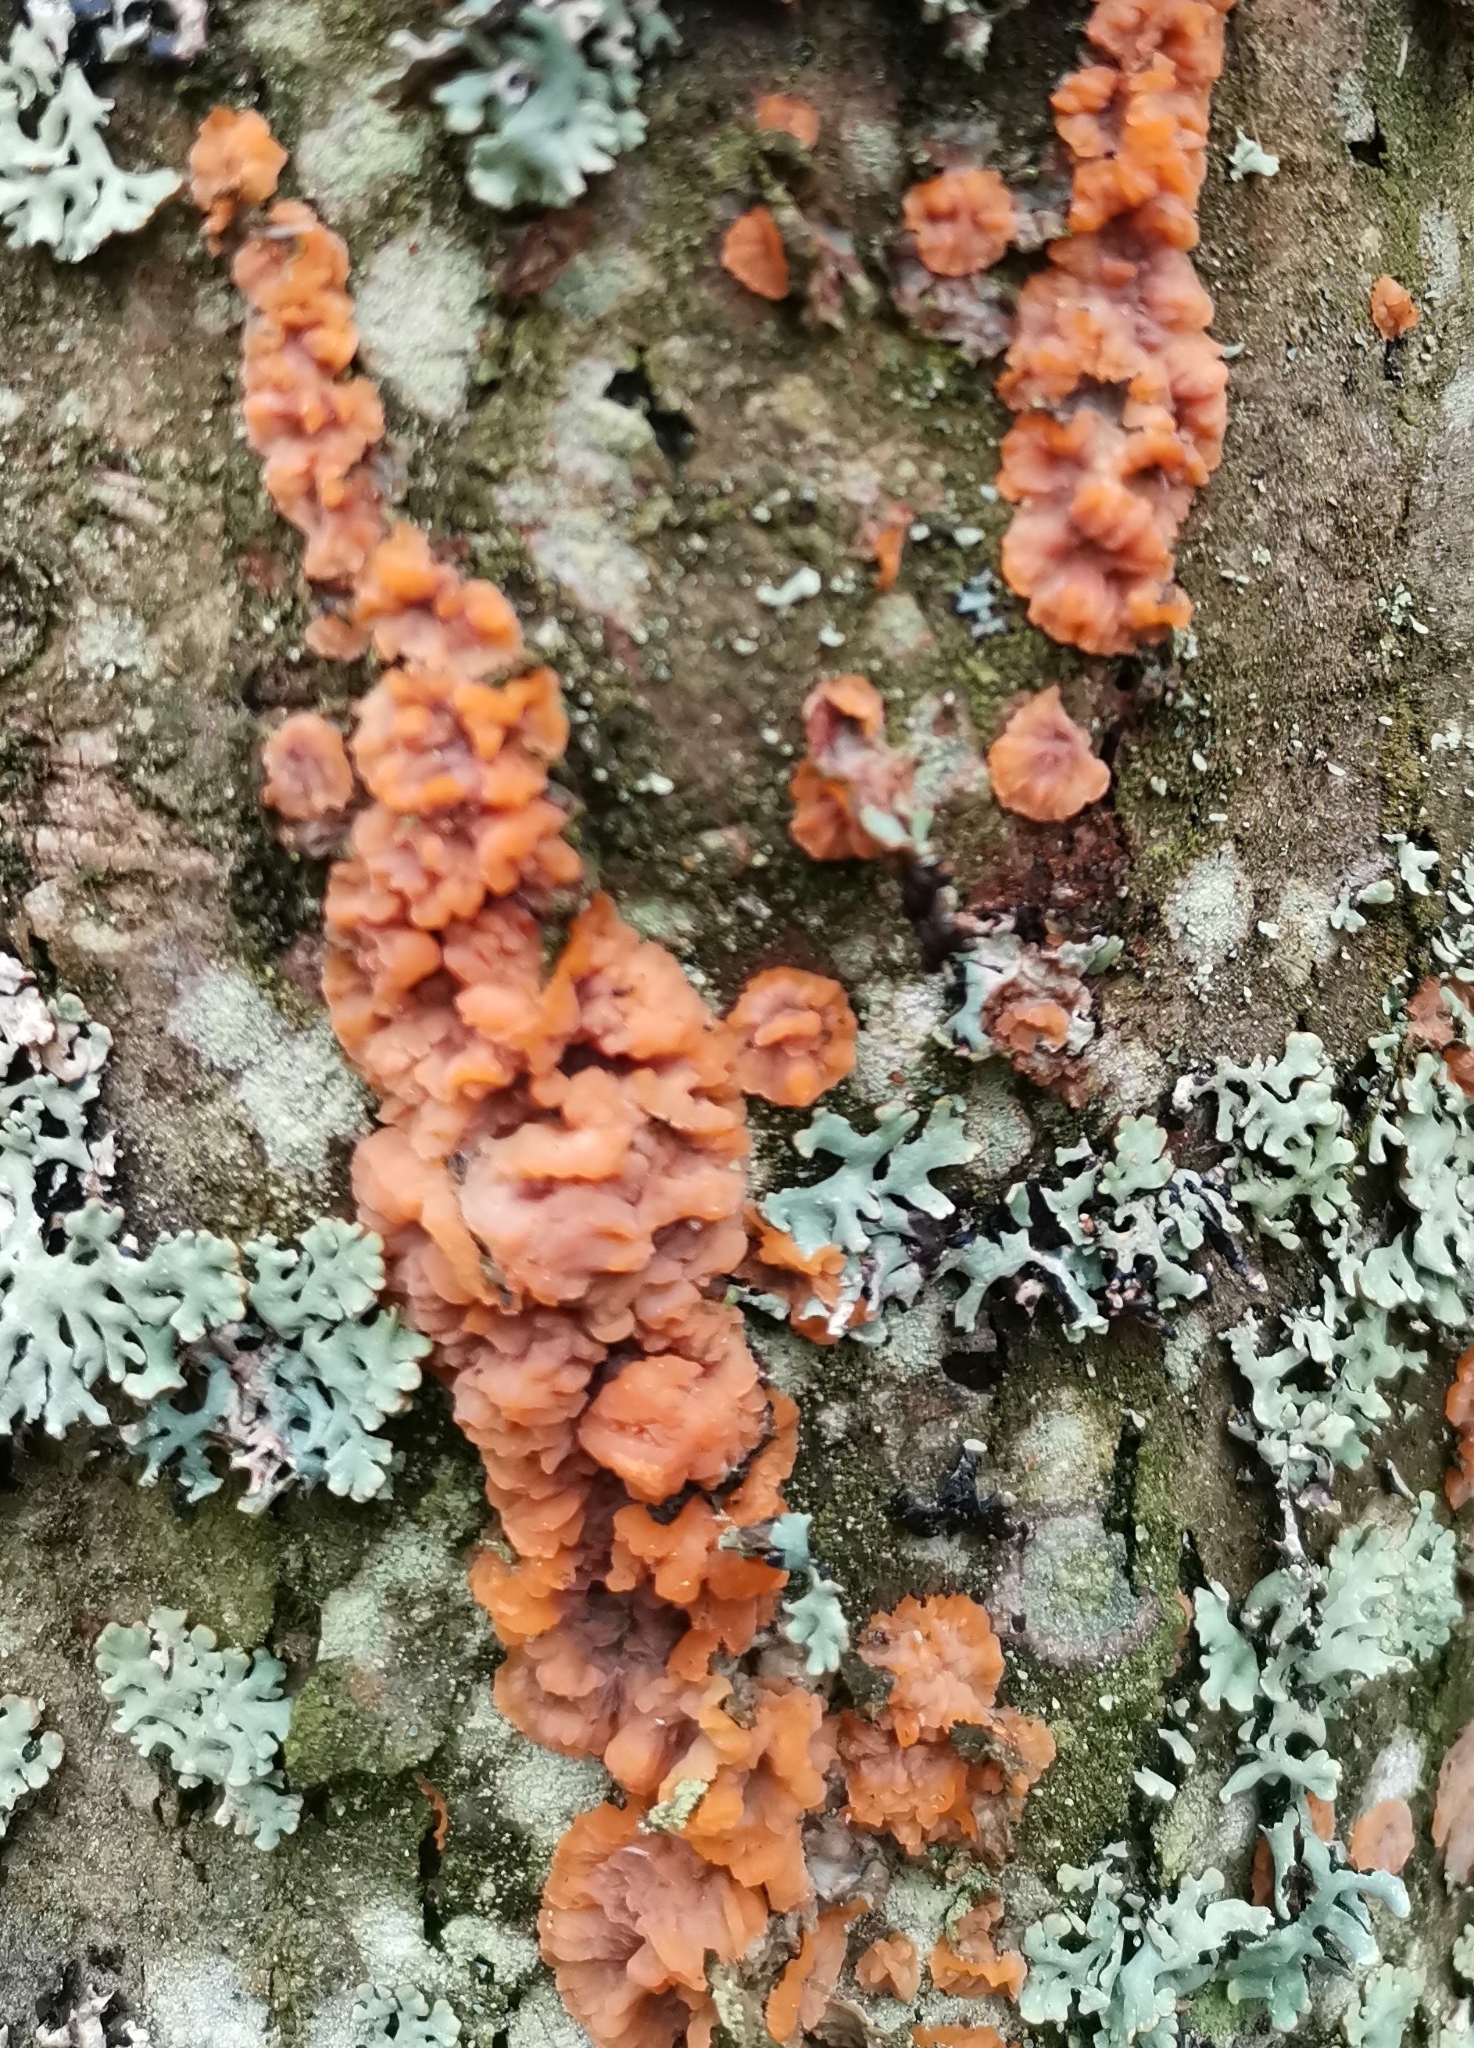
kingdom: Fungi
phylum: Basidiomycota
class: Agaricomycetes
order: Polyporales
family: Meruliaceae
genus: Phlebia
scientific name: Phlebia radiata
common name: Wrinkled crust
